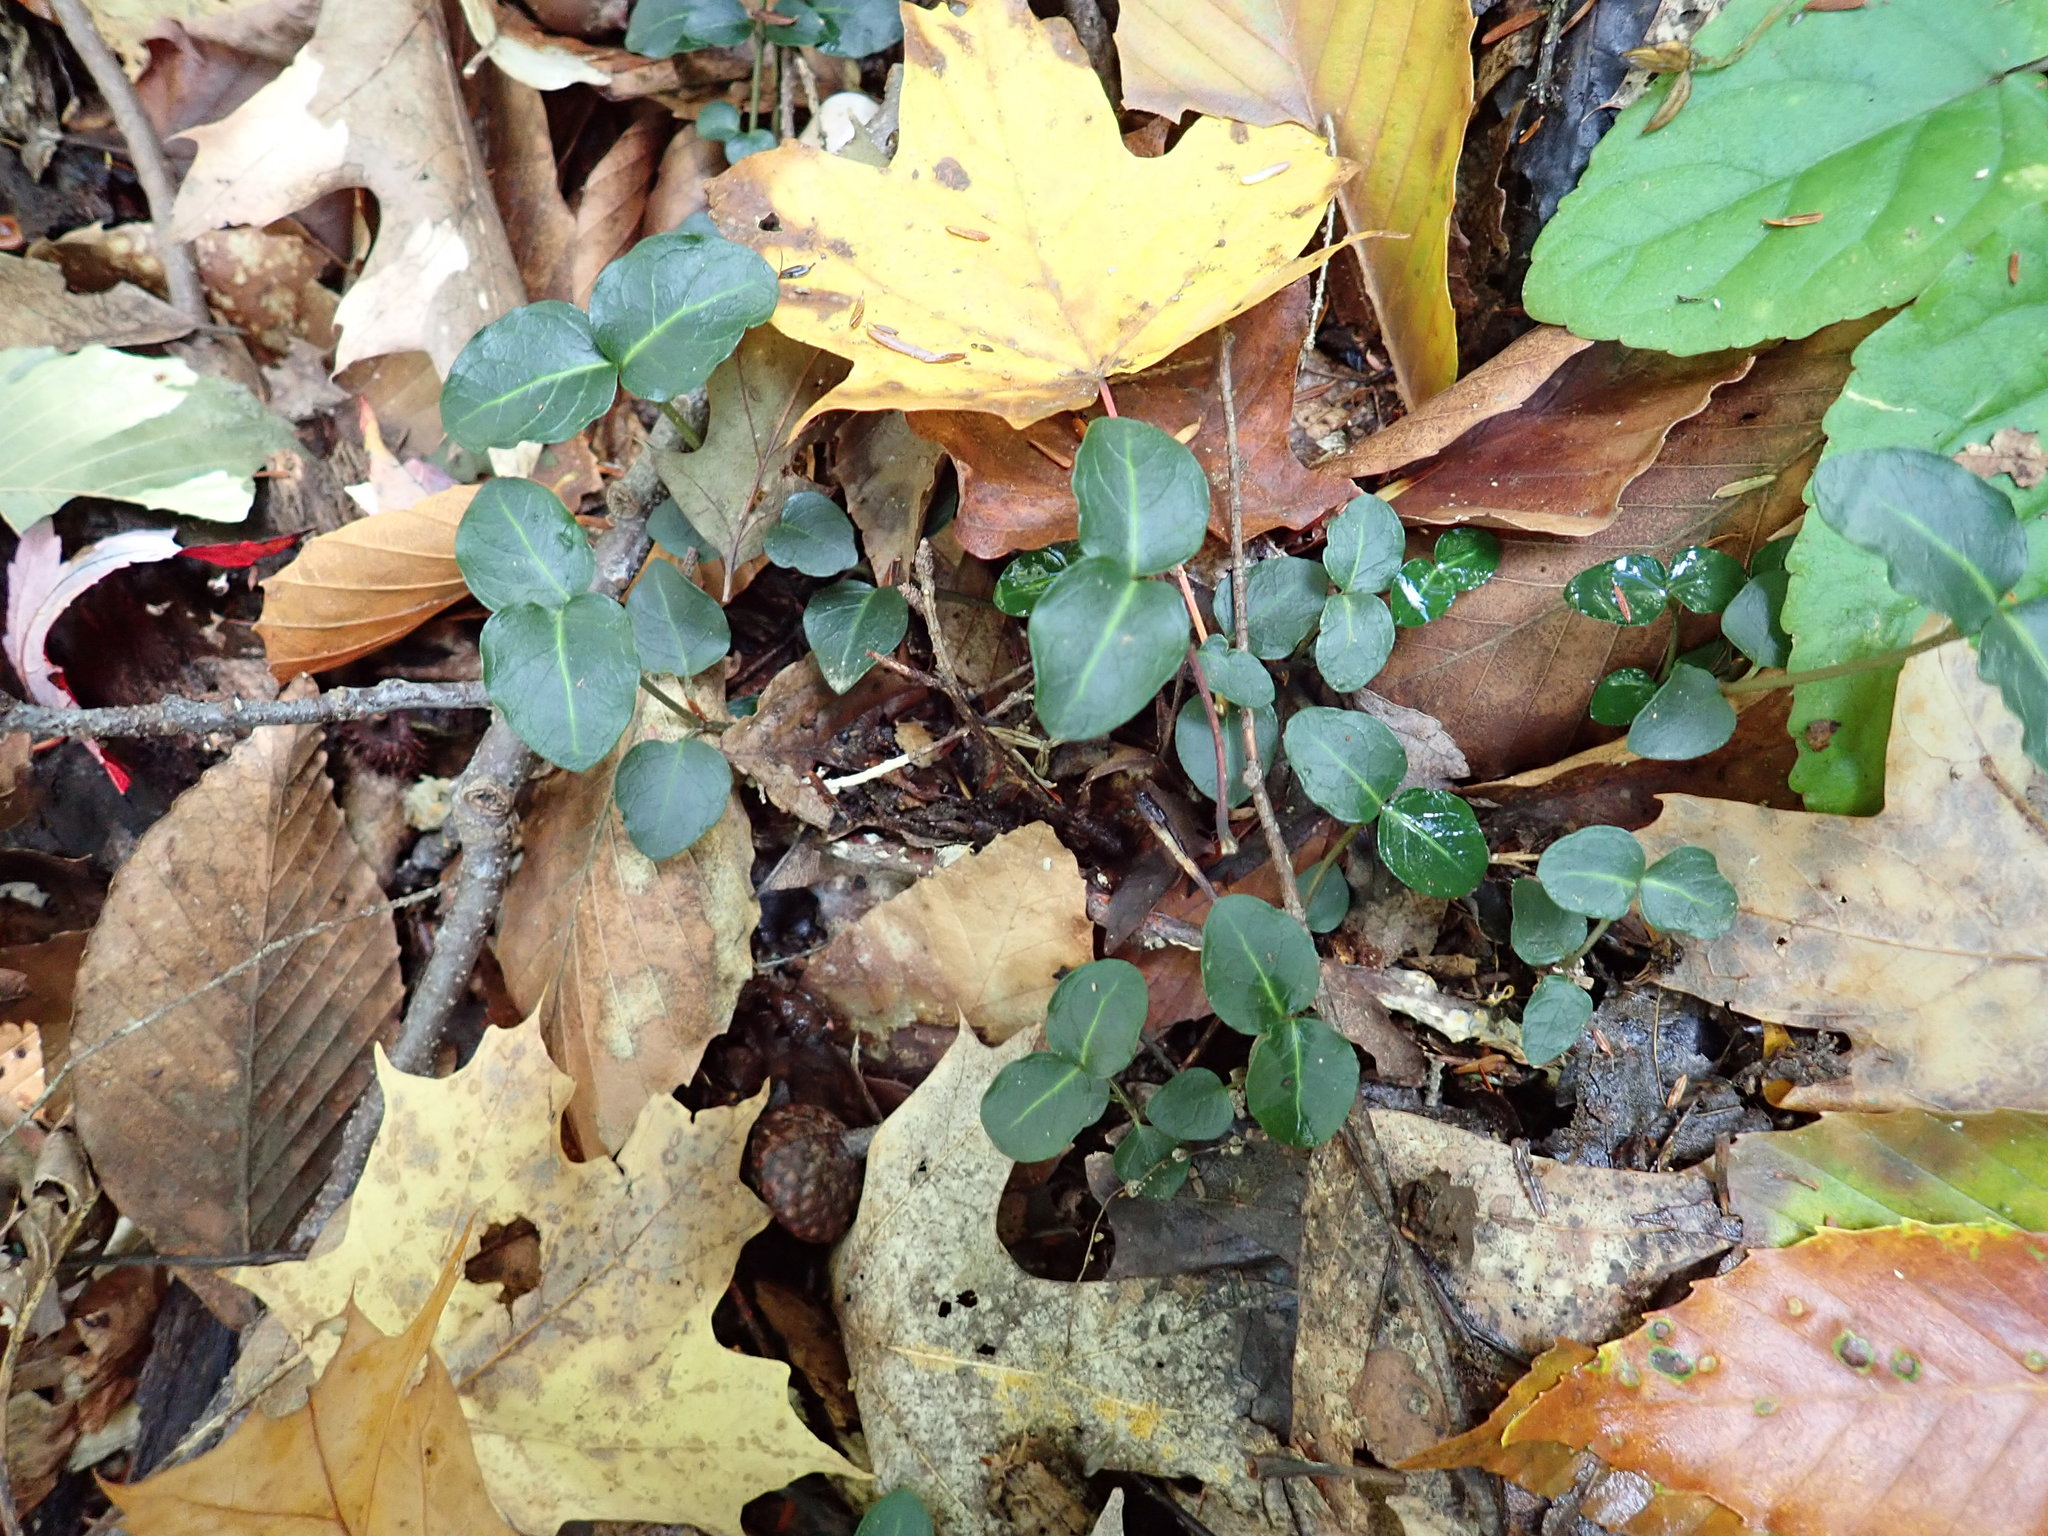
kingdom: Plantae
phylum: Tracheophyta
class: Magnoliopsida
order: Gentianales
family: Rubiaceae
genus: Mitchella
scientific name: Mitchella repens
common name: Partridge-berry
